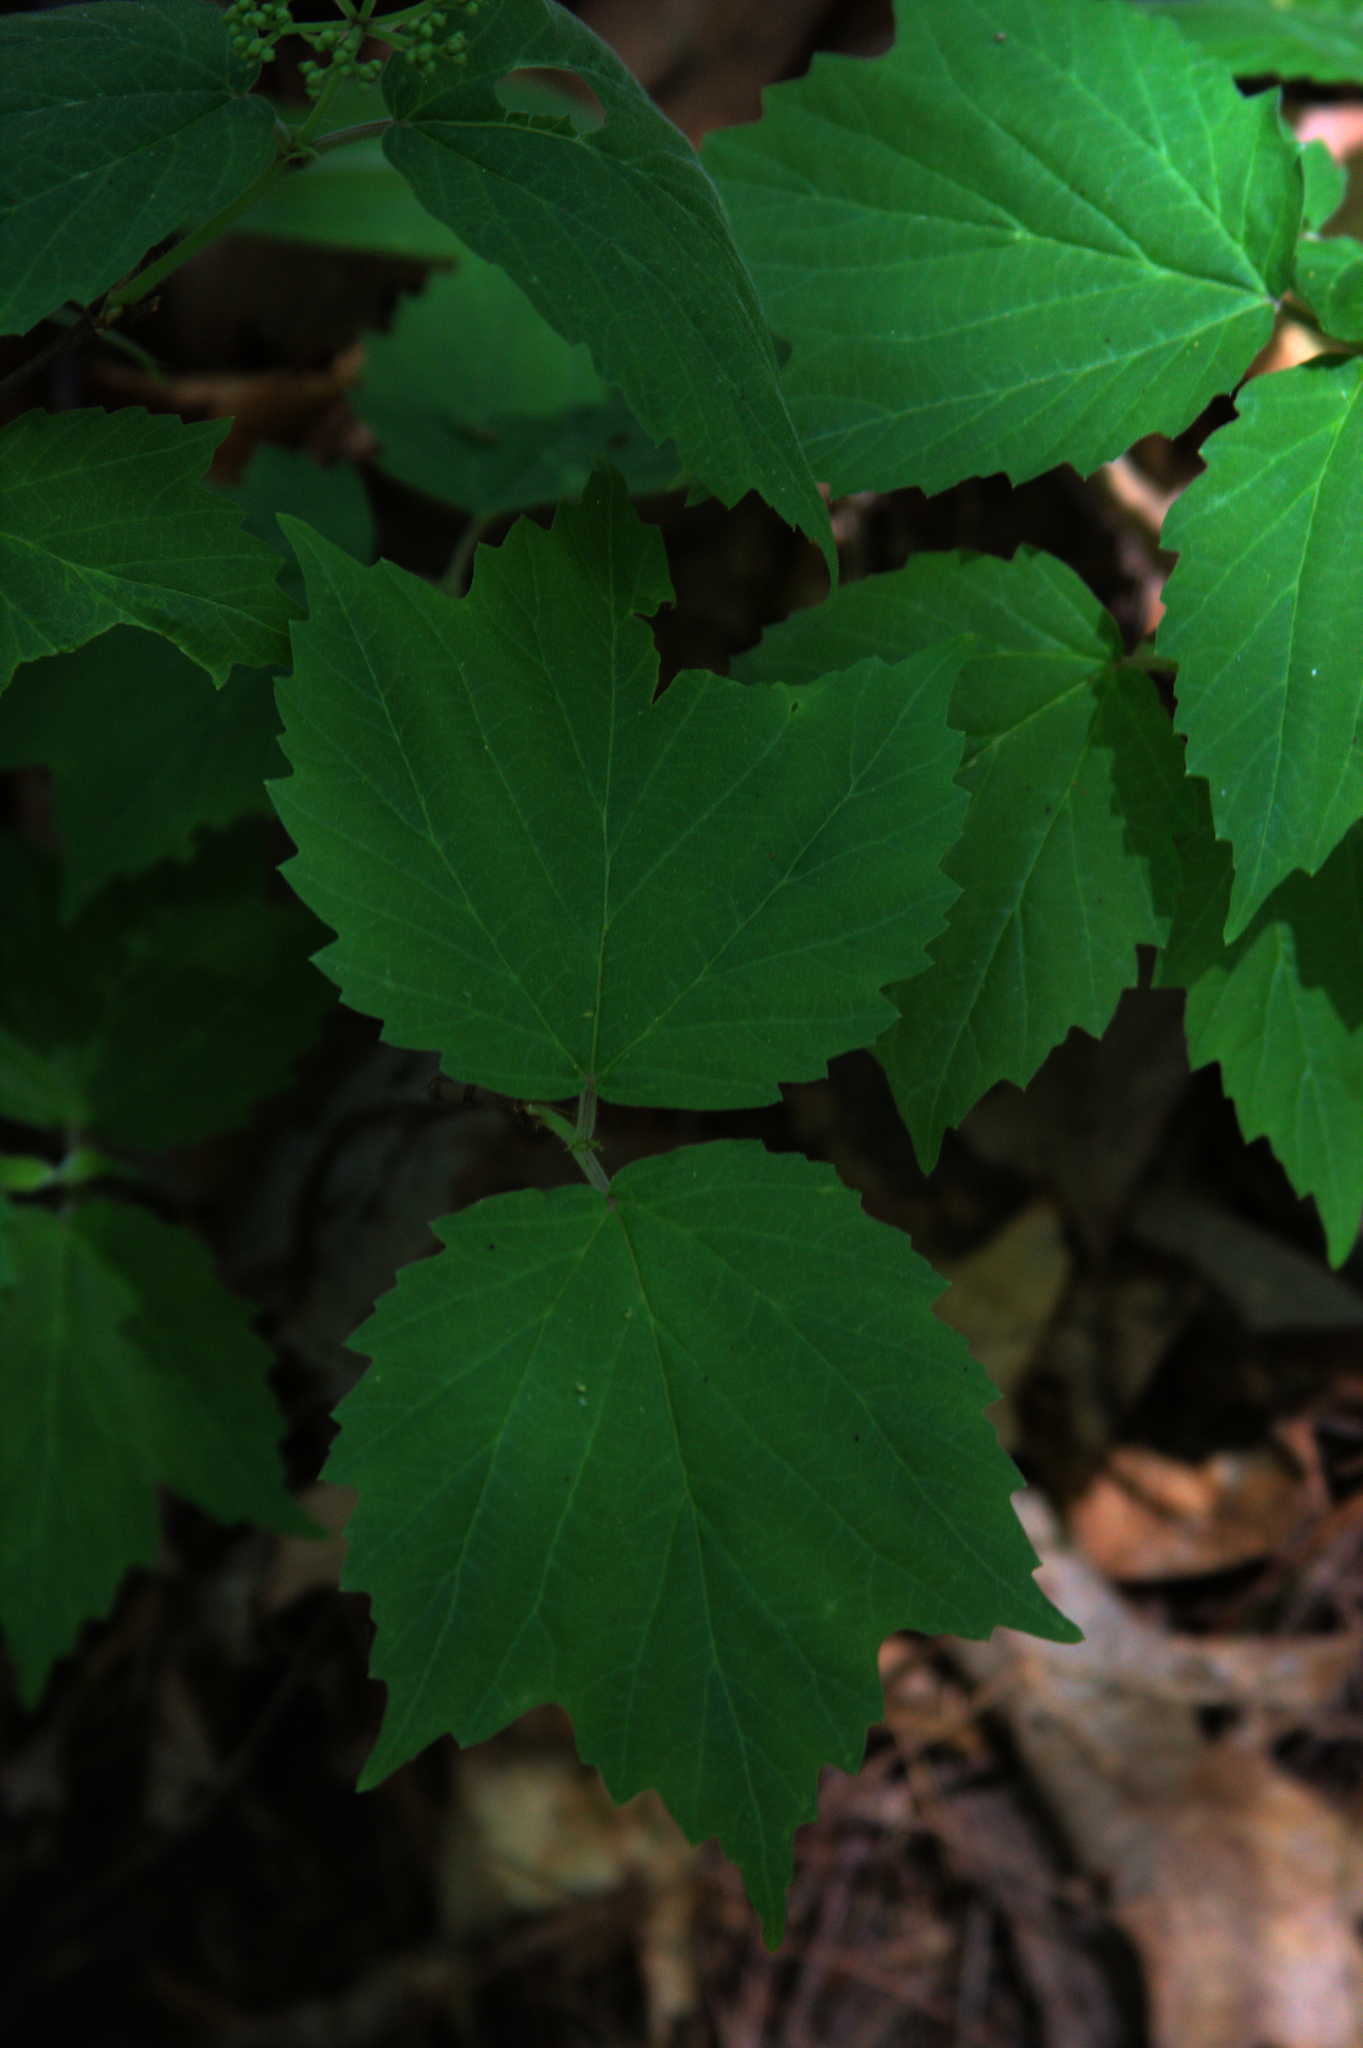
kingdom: Plantae
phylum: Tracheophyta
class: Magnoliopsida
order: Dipsacales
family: Viburnaceae
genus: Viburnum
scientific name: Viburnum acerifolium
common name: Dockmackie
